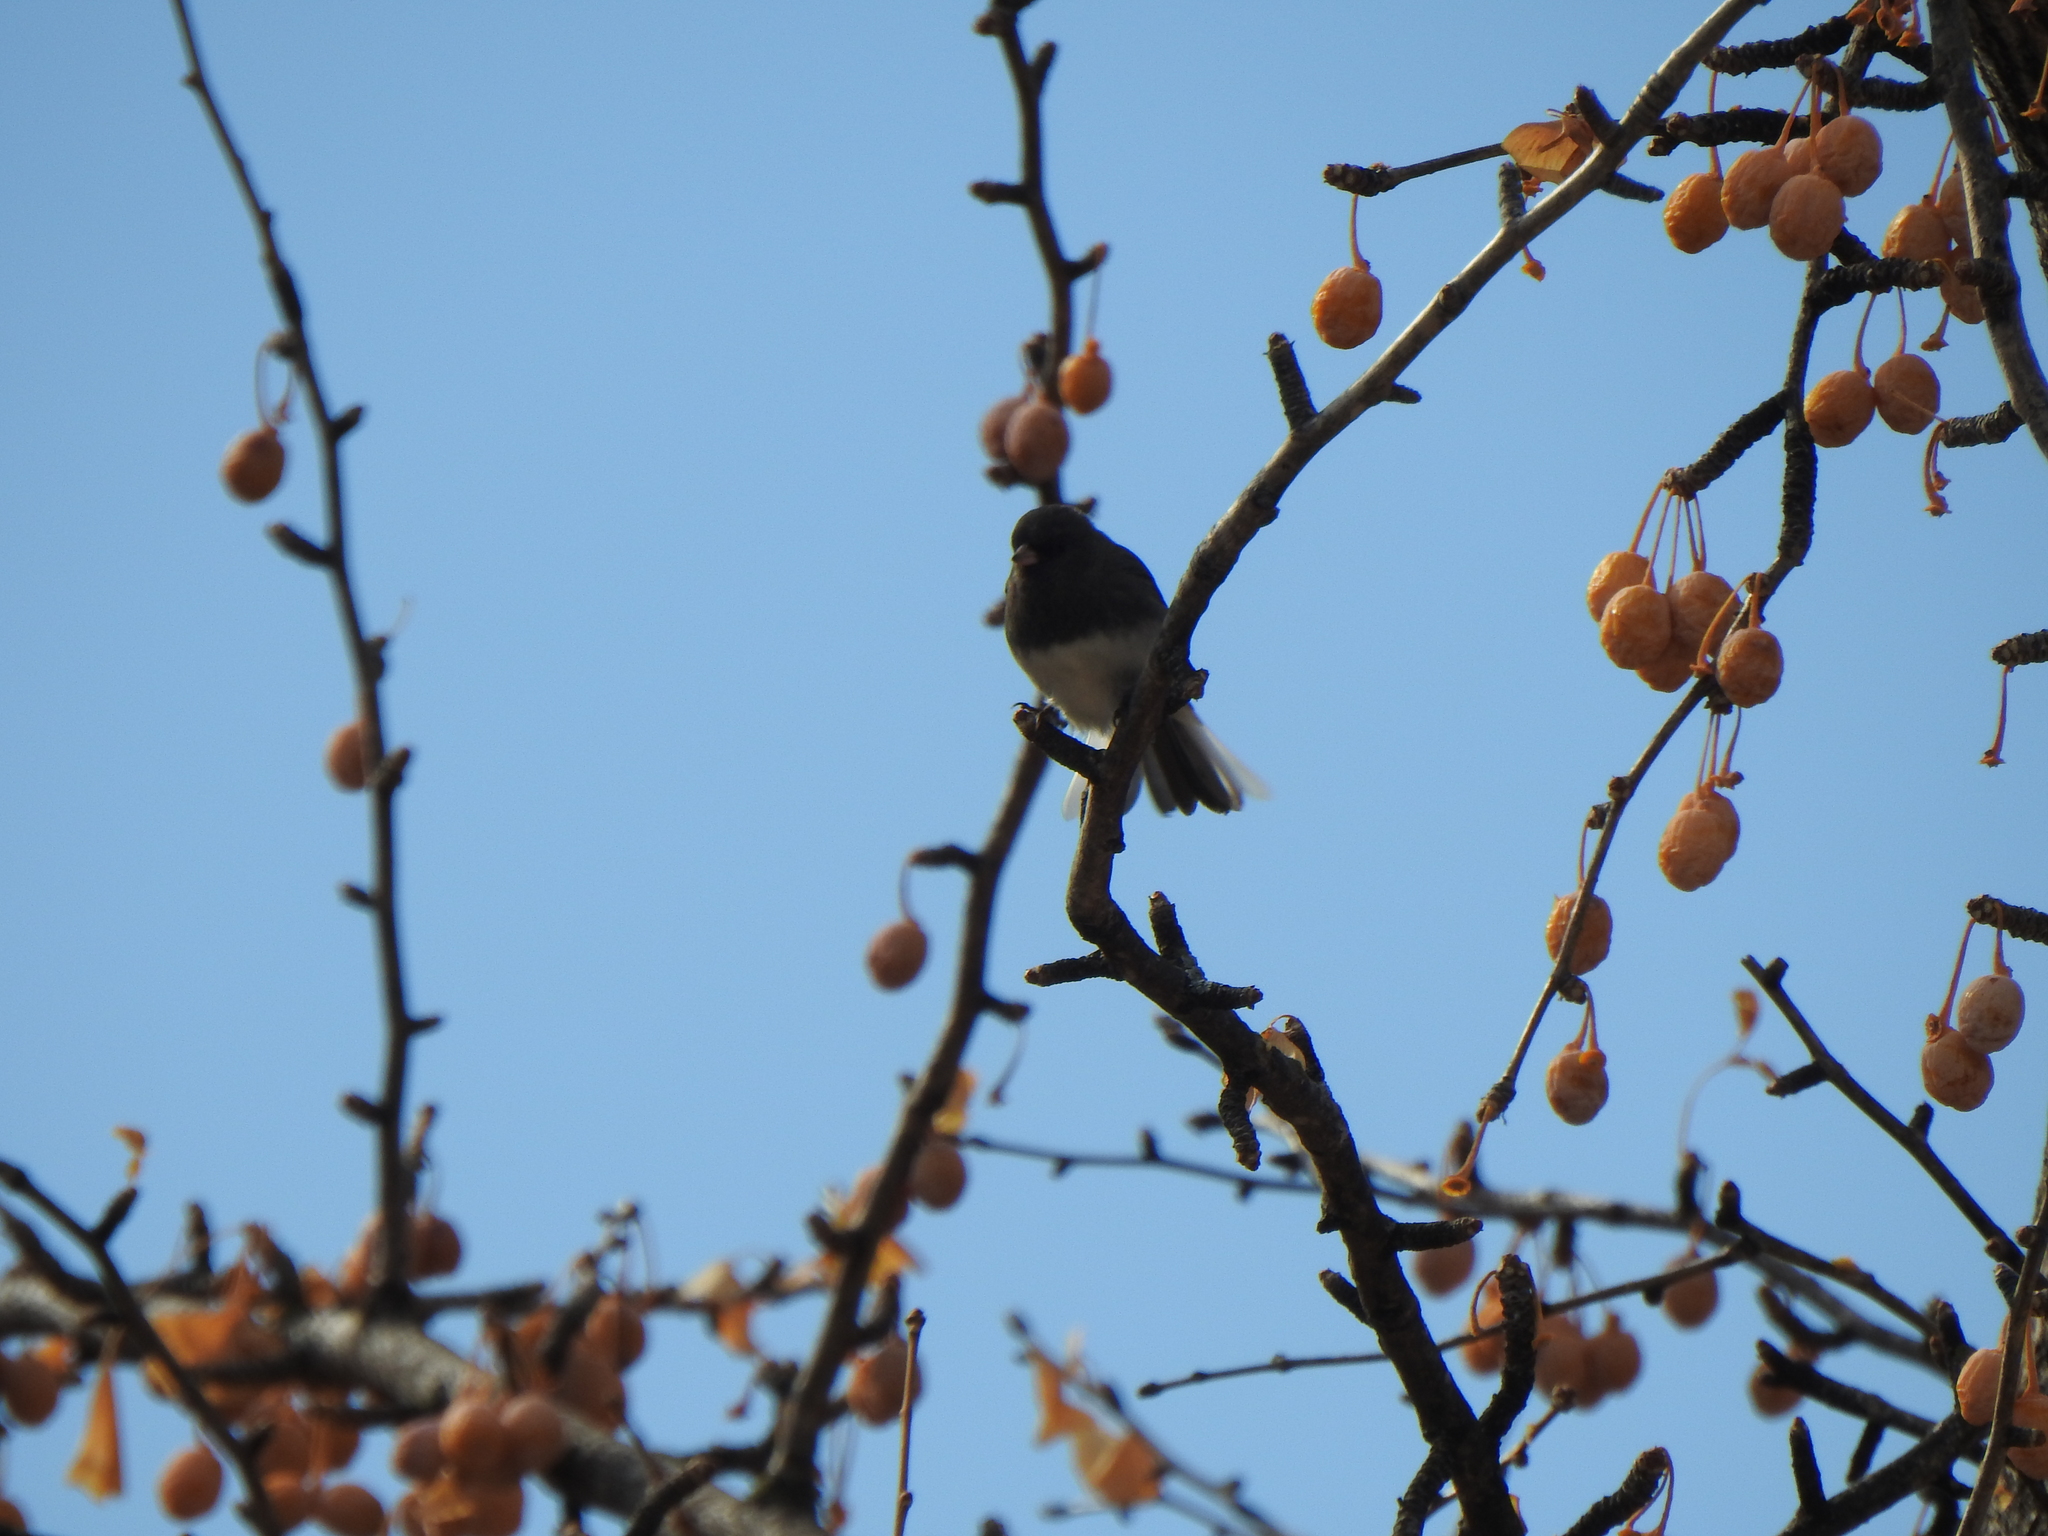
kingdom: Animalia
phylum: Chordata
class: Aves
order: Passeriformes
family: Passerellidae
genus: Junco
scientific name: Junco hyemalis
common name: Dark-eyed junco
